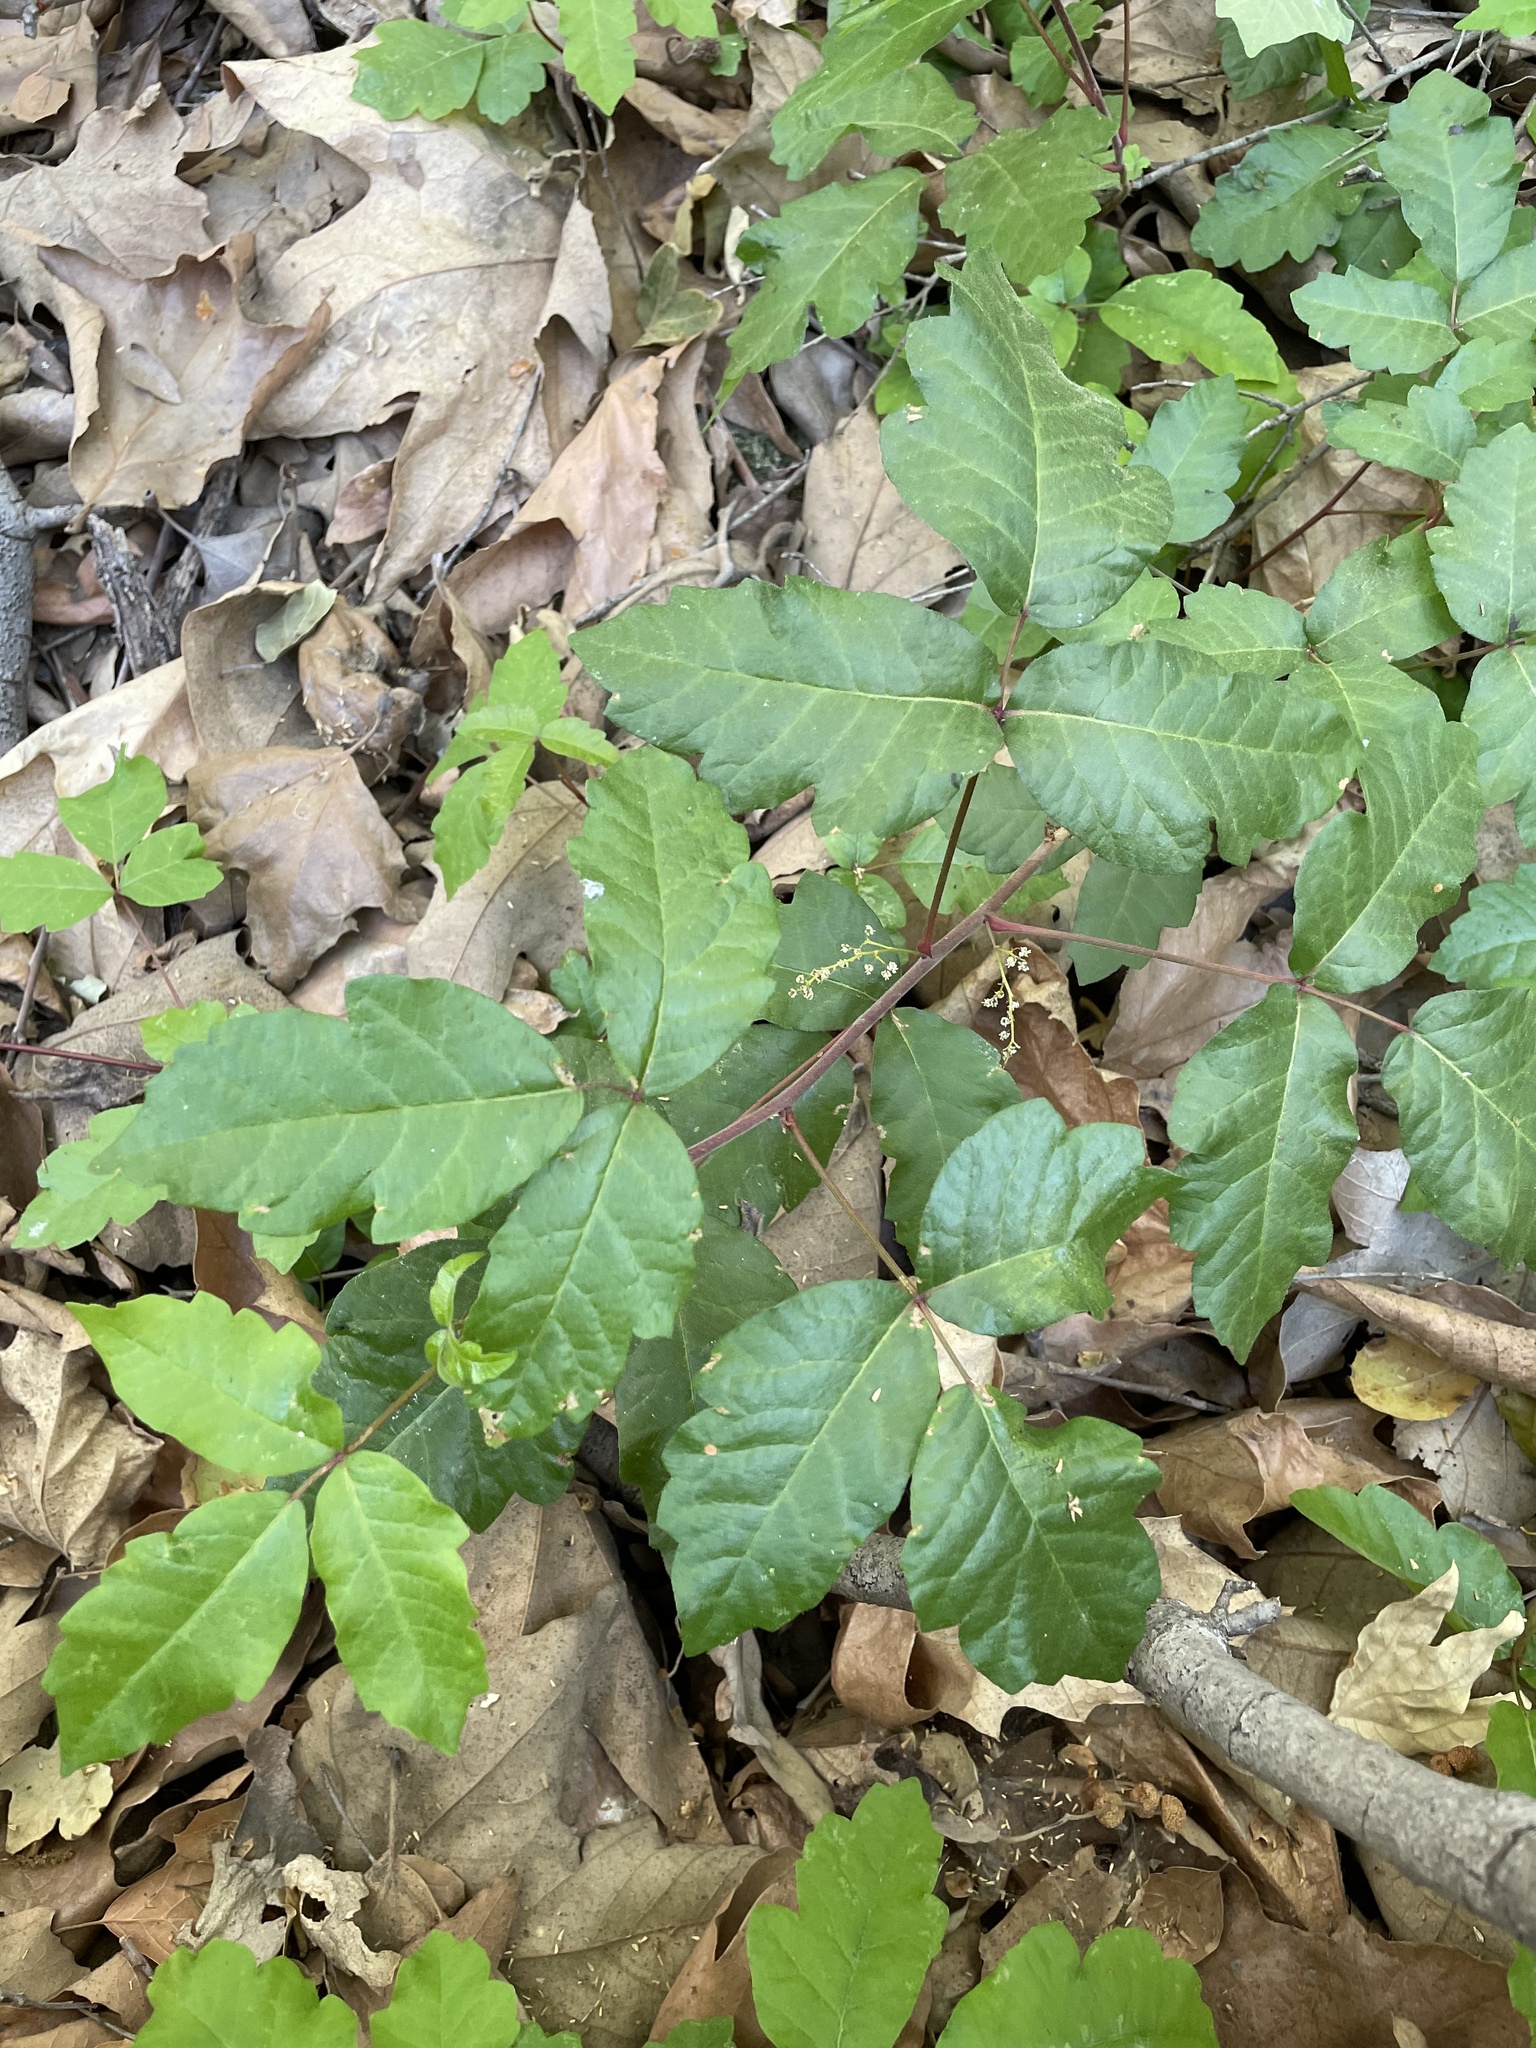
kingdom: Plantae
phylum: Tracheophyta
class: Magnoliopsida
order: Sapindales
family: Anacardiaceae
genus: Toxicodendron
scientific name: Toxicodendron diversilobum
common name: Pacific poison-oak
